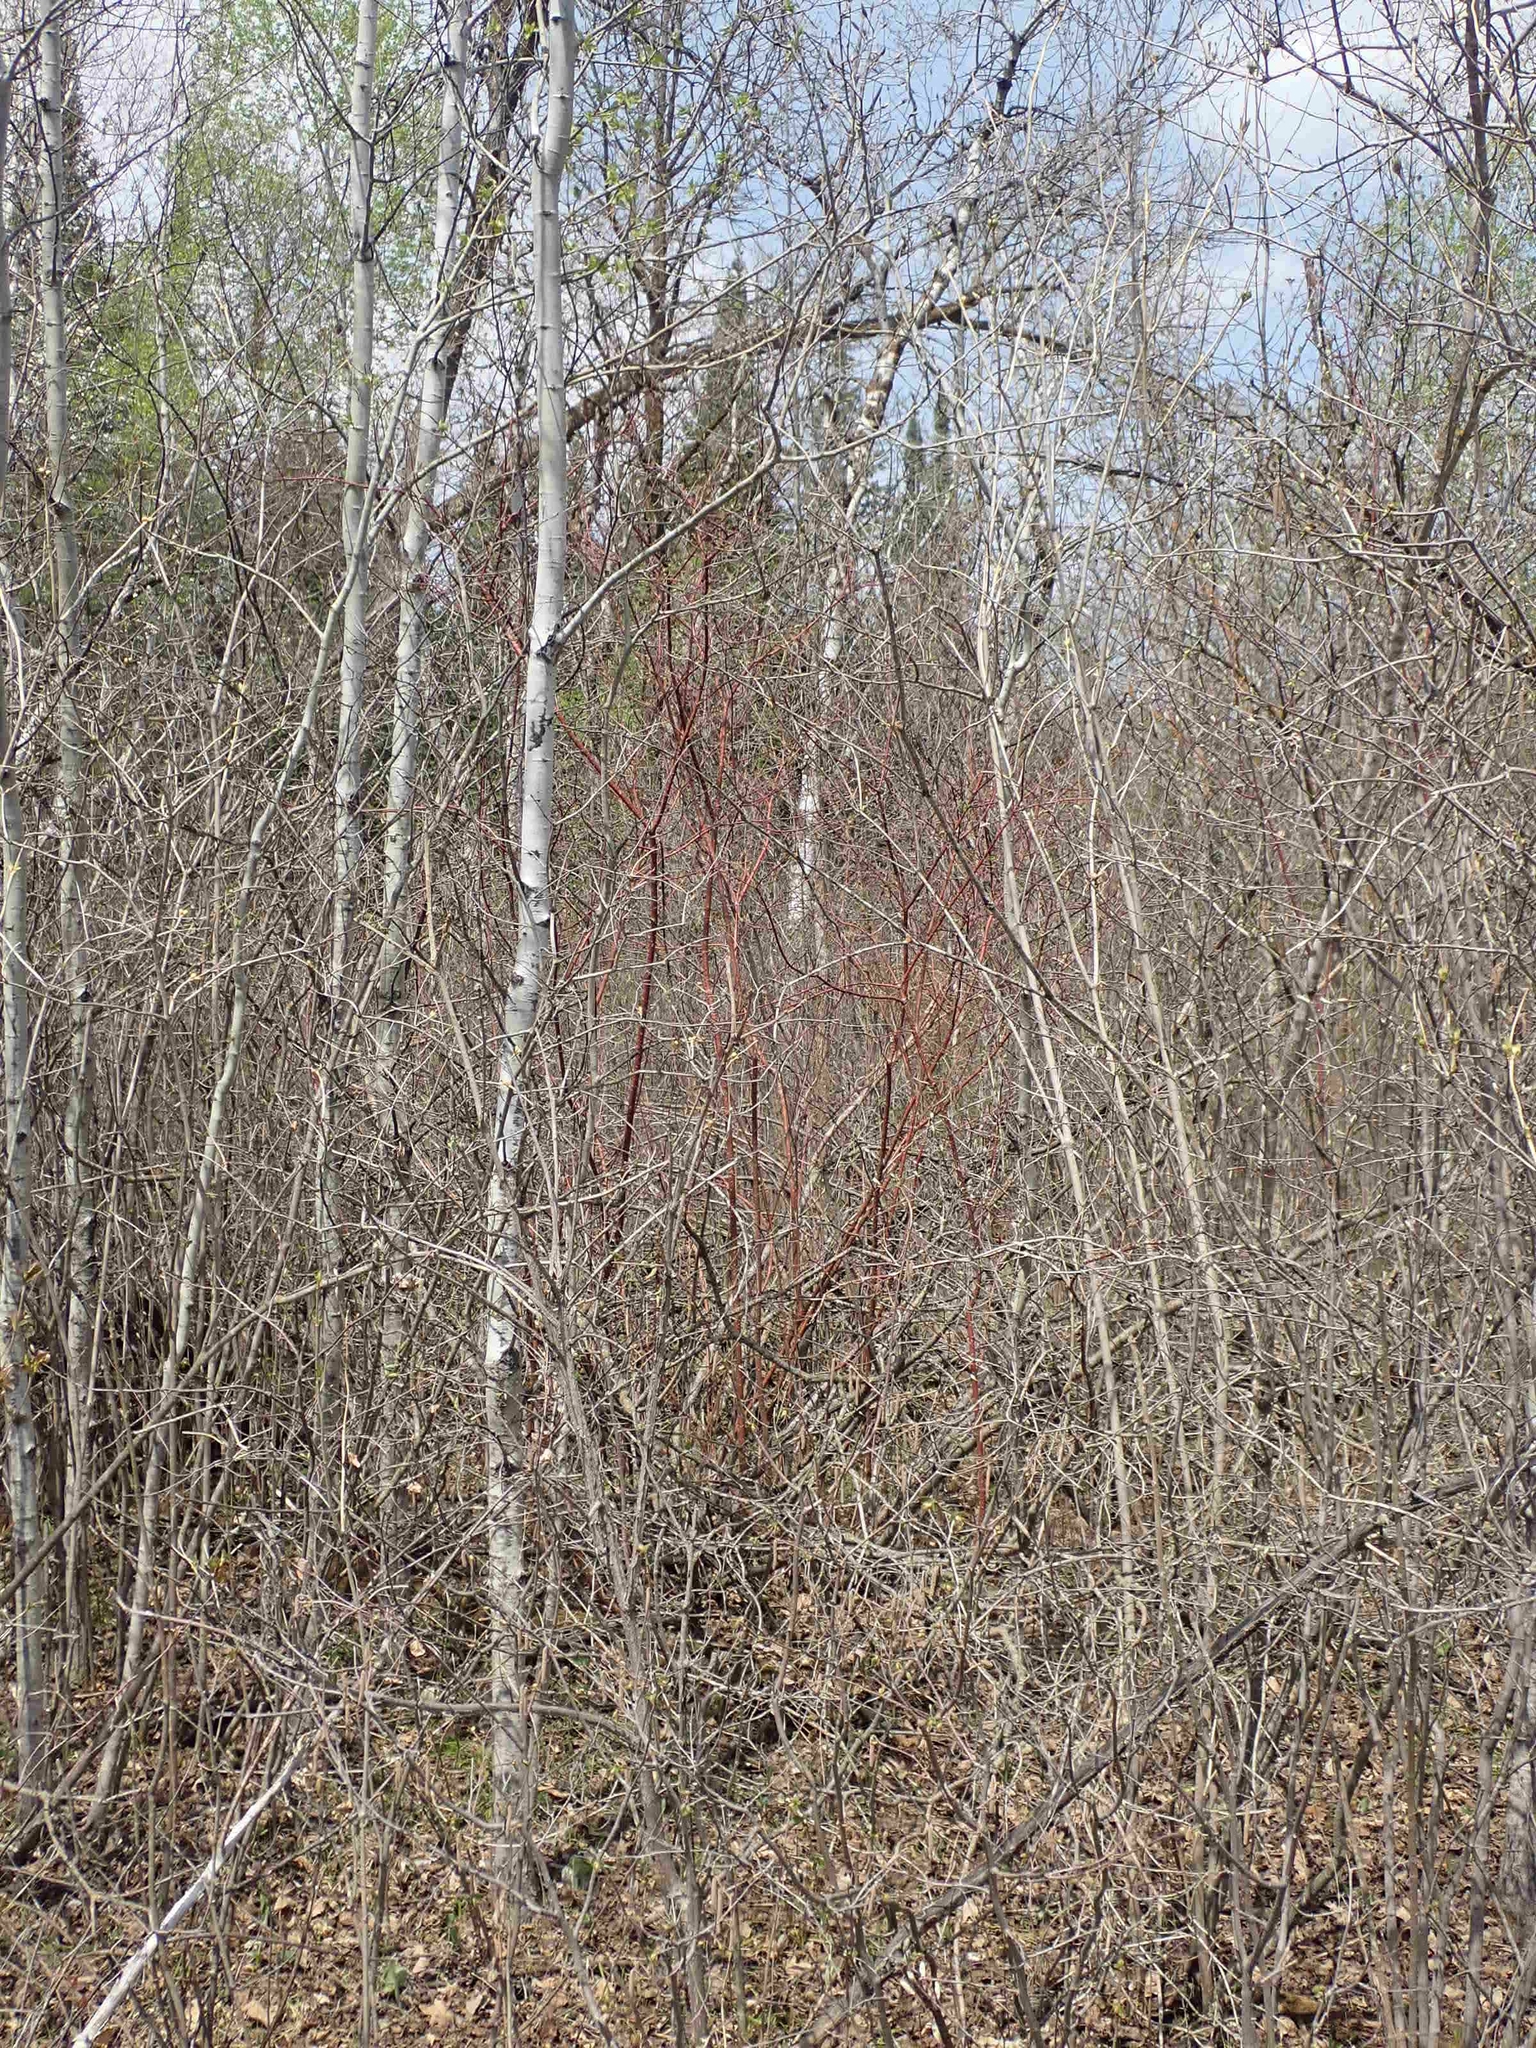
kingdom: Plantae
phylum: Tracheophyta
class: Magnoliopsida
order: Cornales
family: Cornaceae
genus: Cornus
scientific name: Cornus sericea
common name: Red-osier dogwood
